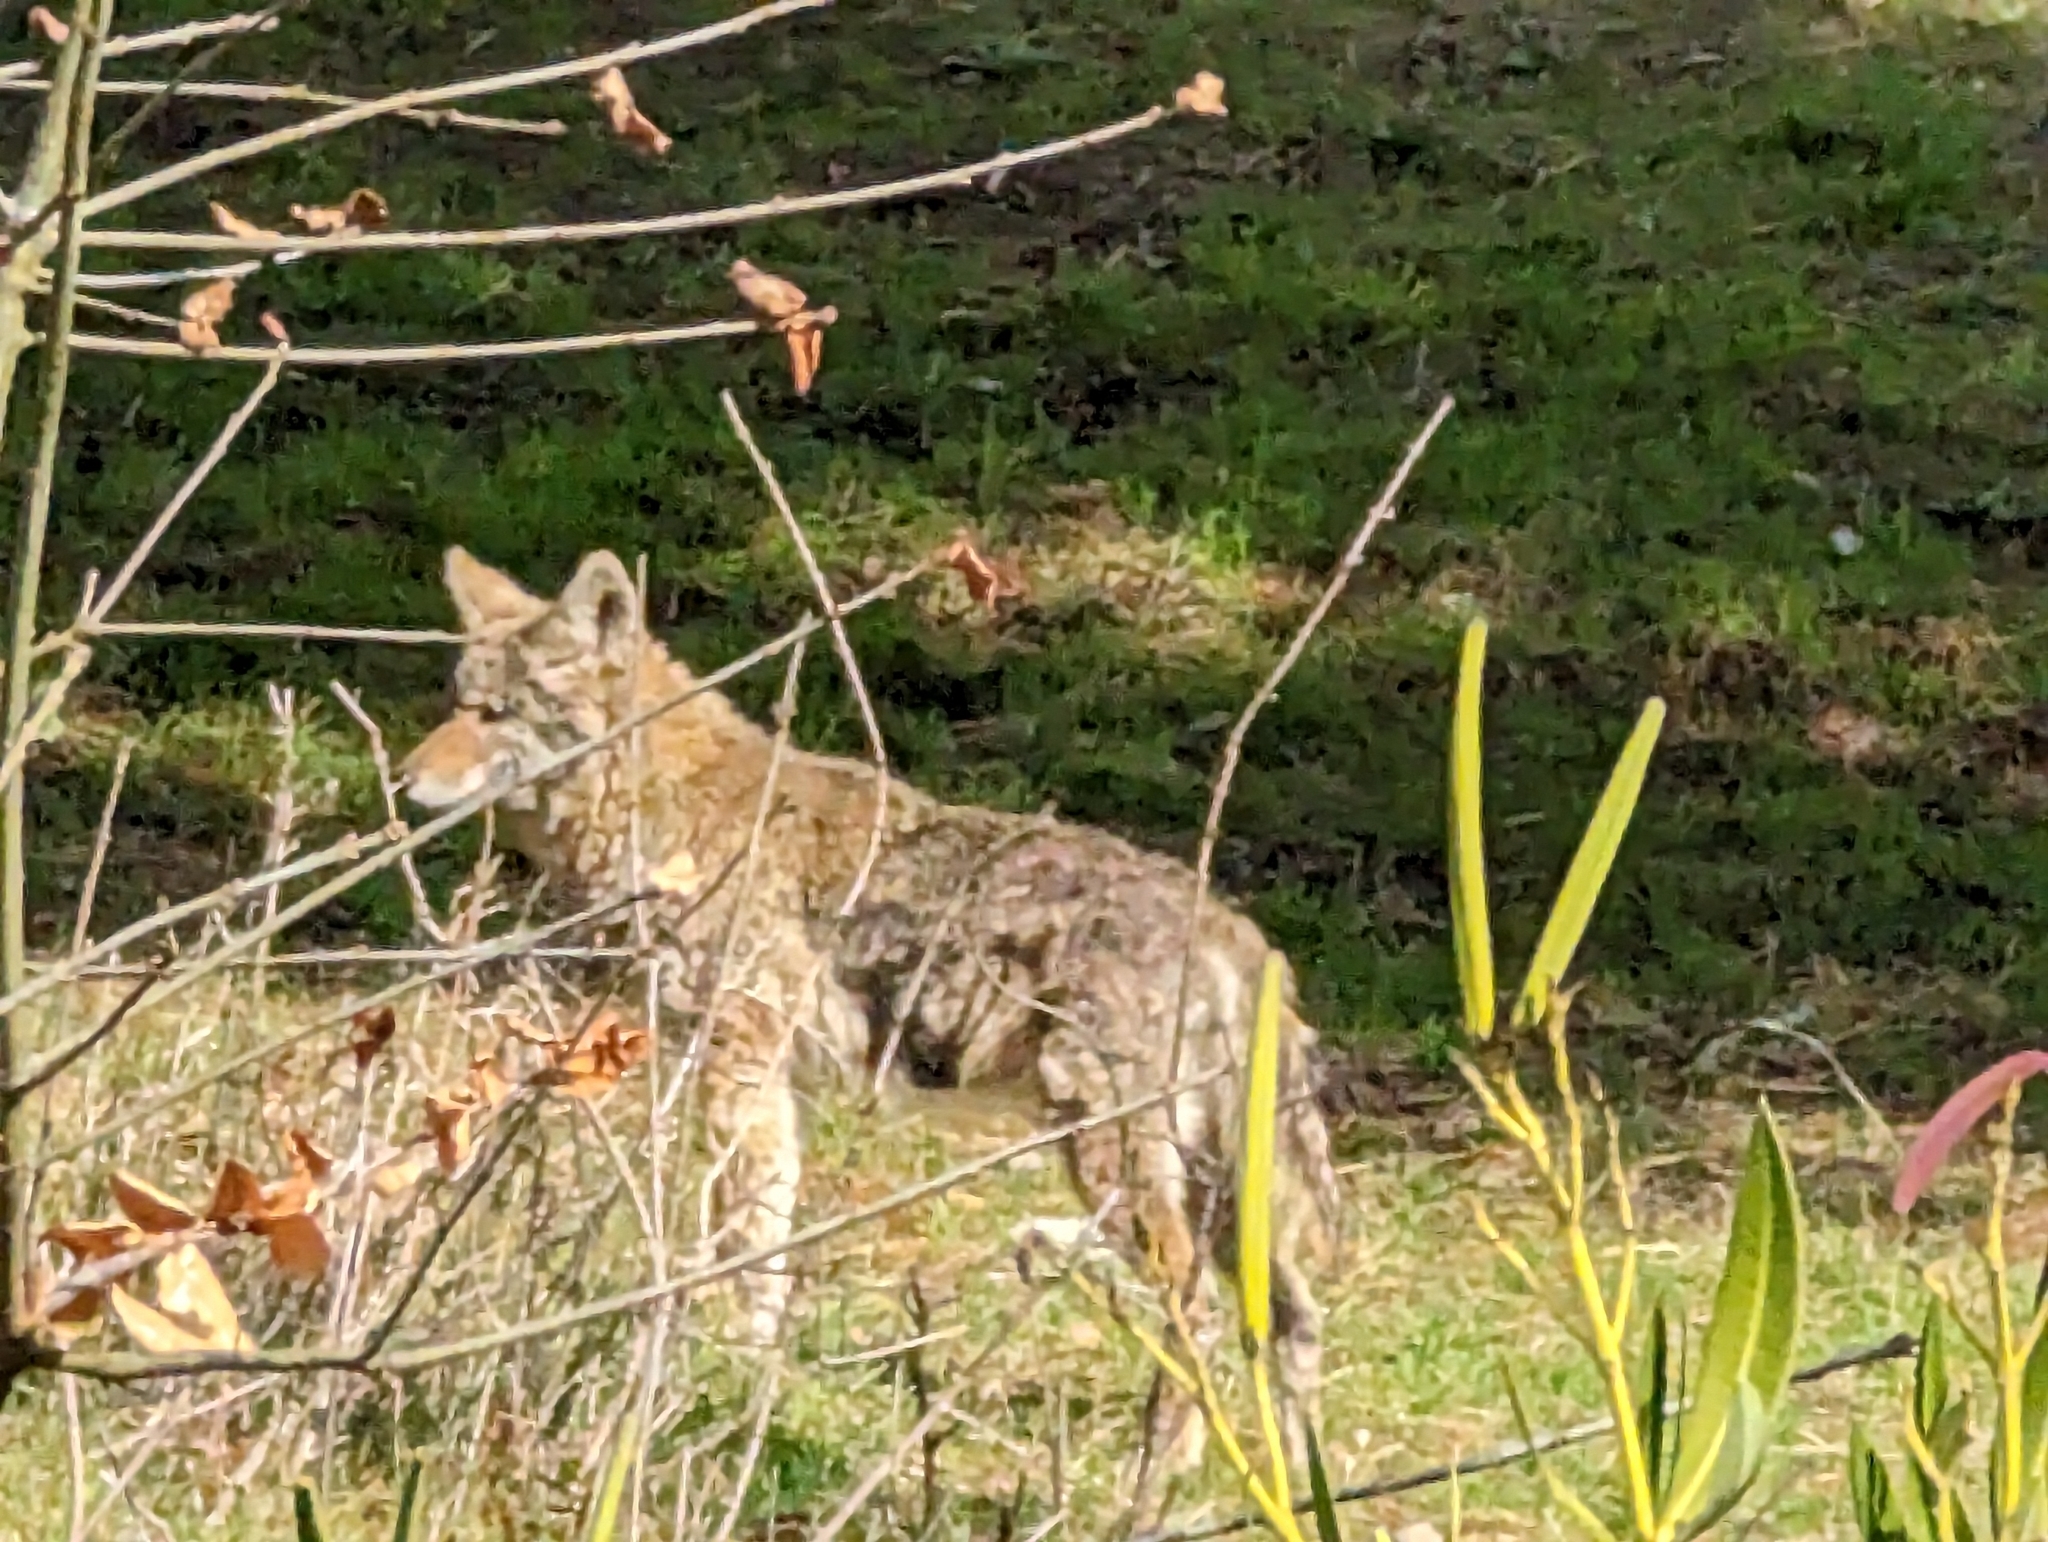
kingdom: Animalia
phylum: Chordata
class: Mammalia
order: Carnivora
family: Canidae
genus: Canis
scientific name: Canis latrans
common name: Coyote
